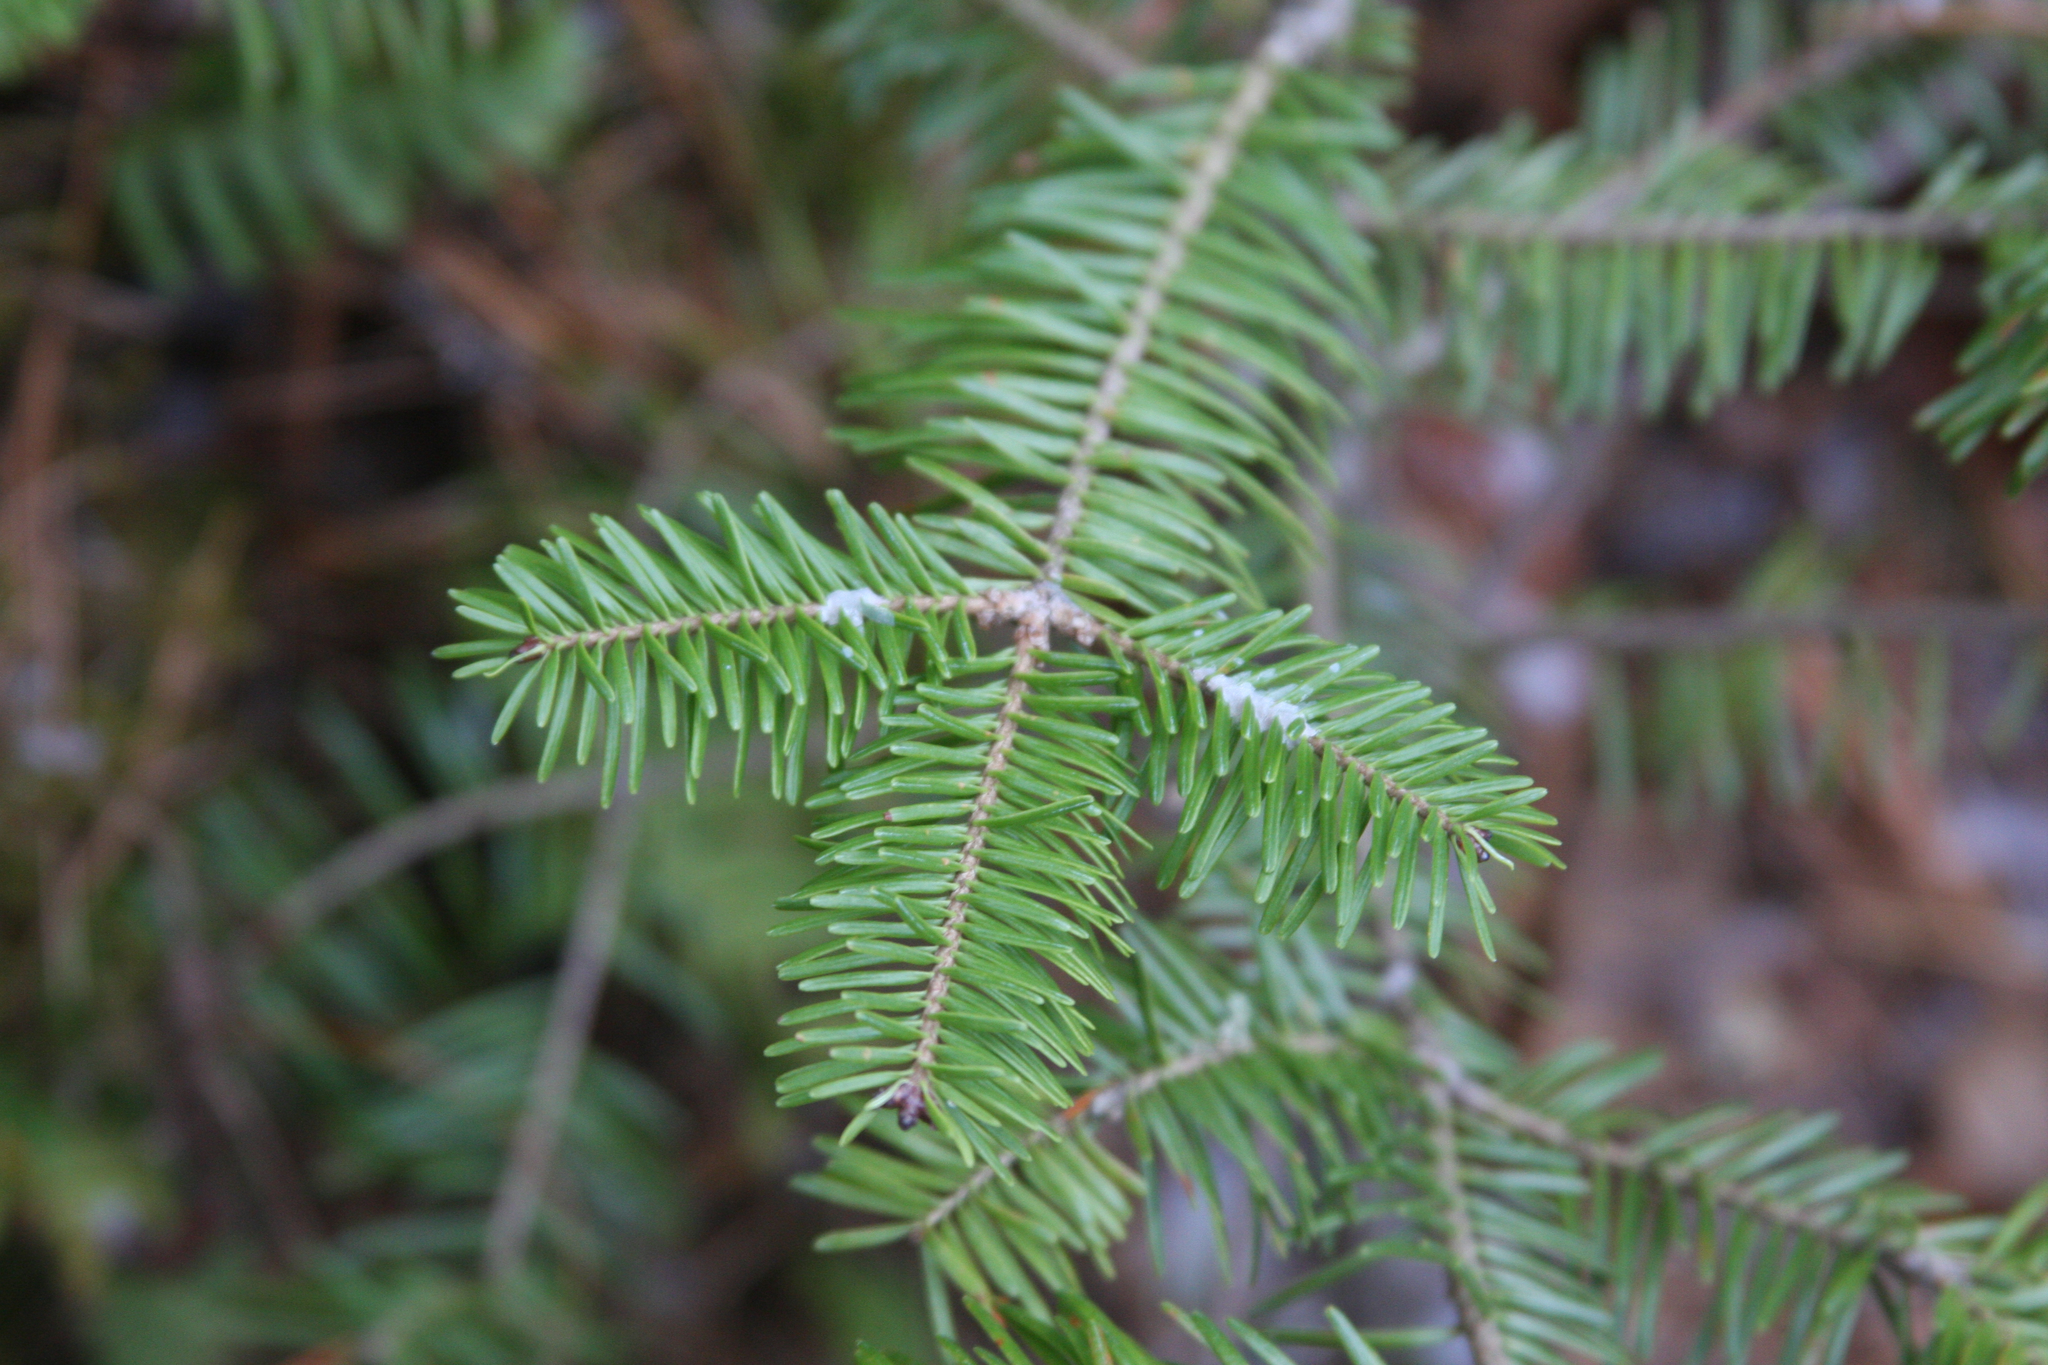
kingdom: Plantae
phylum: Tracheophyta
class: Pinopsida
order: Pinales
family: Pinaceae
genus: Abies
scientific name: Abies balsamea
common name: Balsam fir
